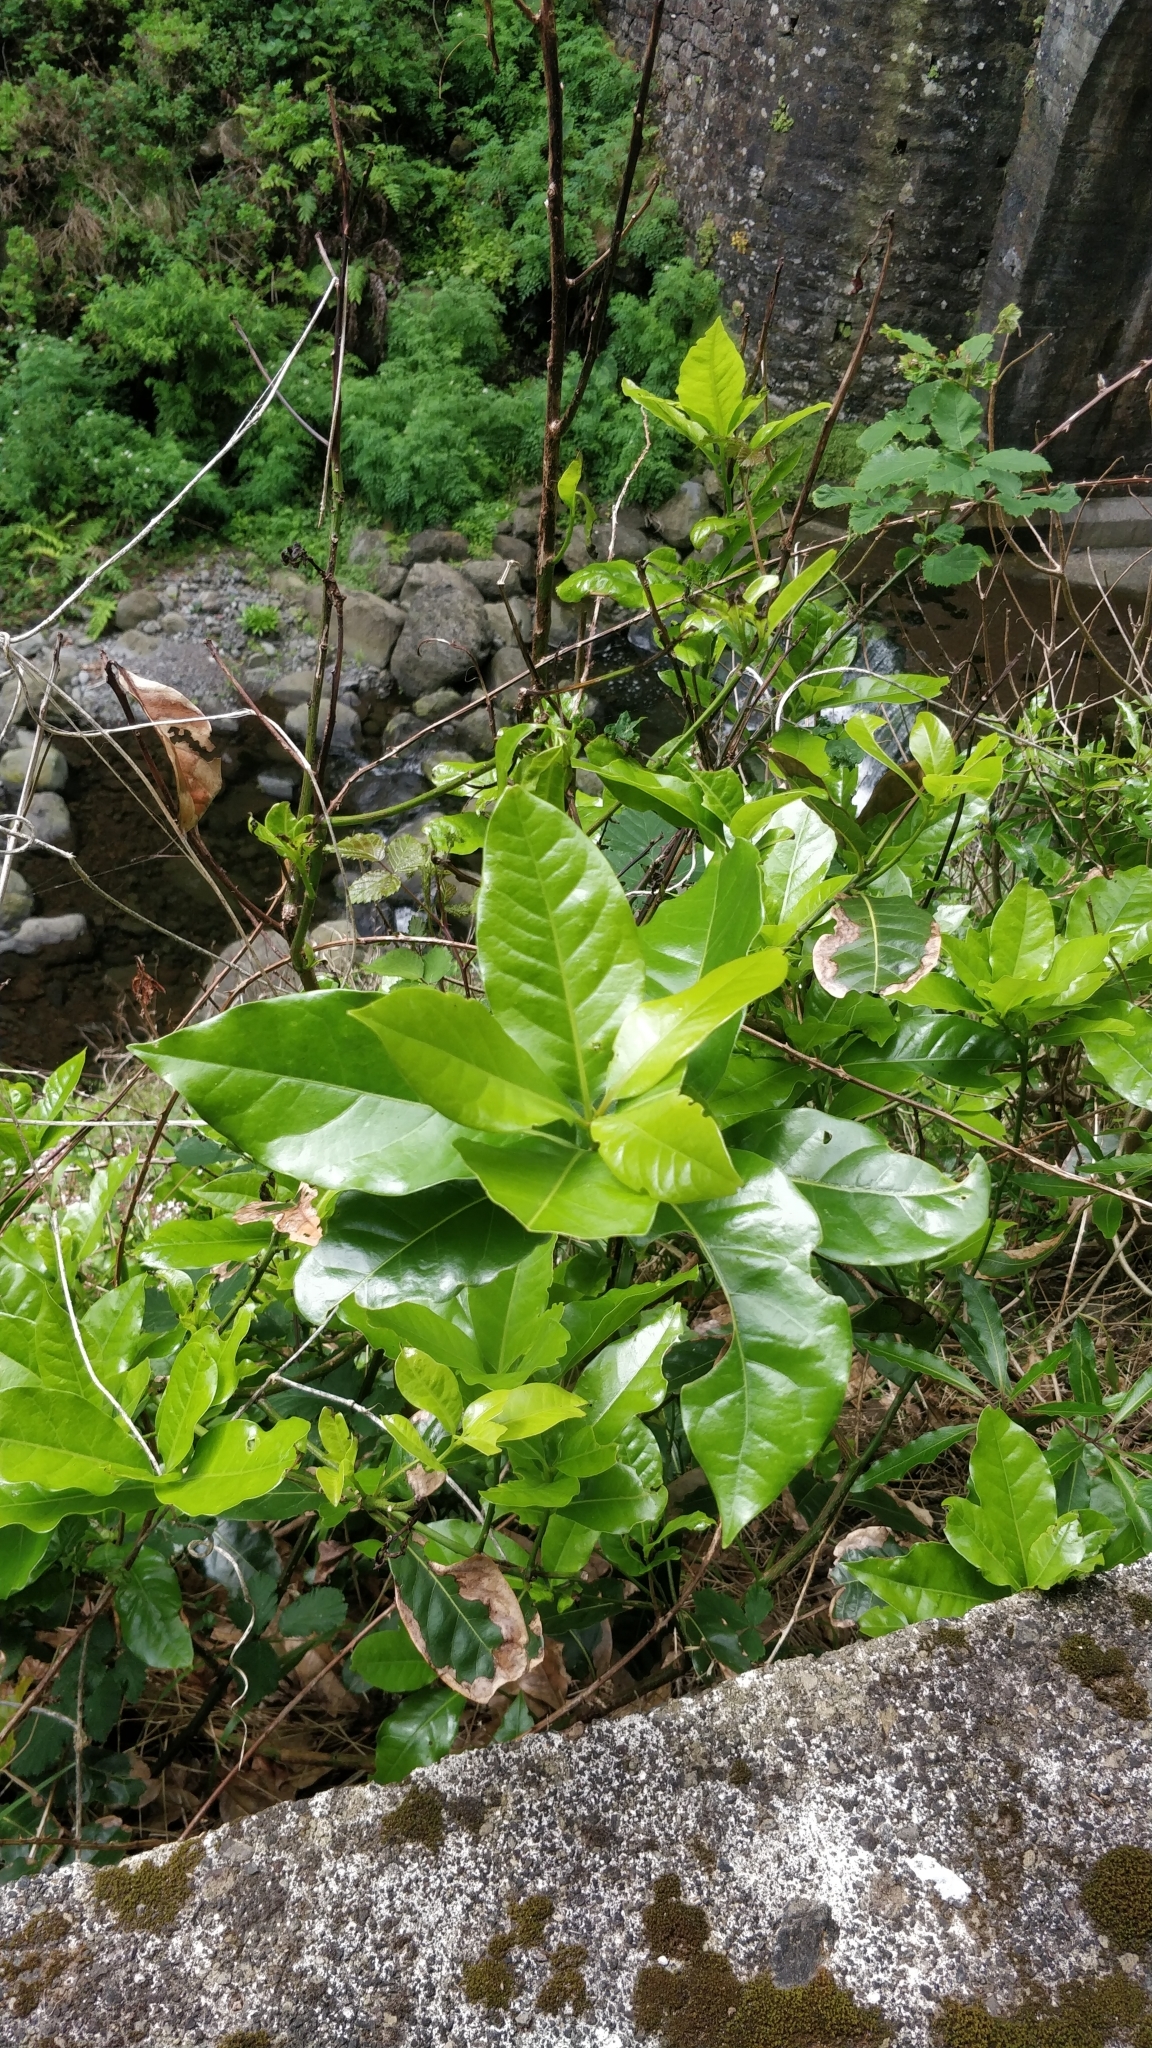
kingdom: Plantae
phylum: Tracheophyta
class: Magnoliopsida
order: Laurales
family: Lauraceae
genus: Mespilodaphne
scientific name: Mespilodaphne foetens
